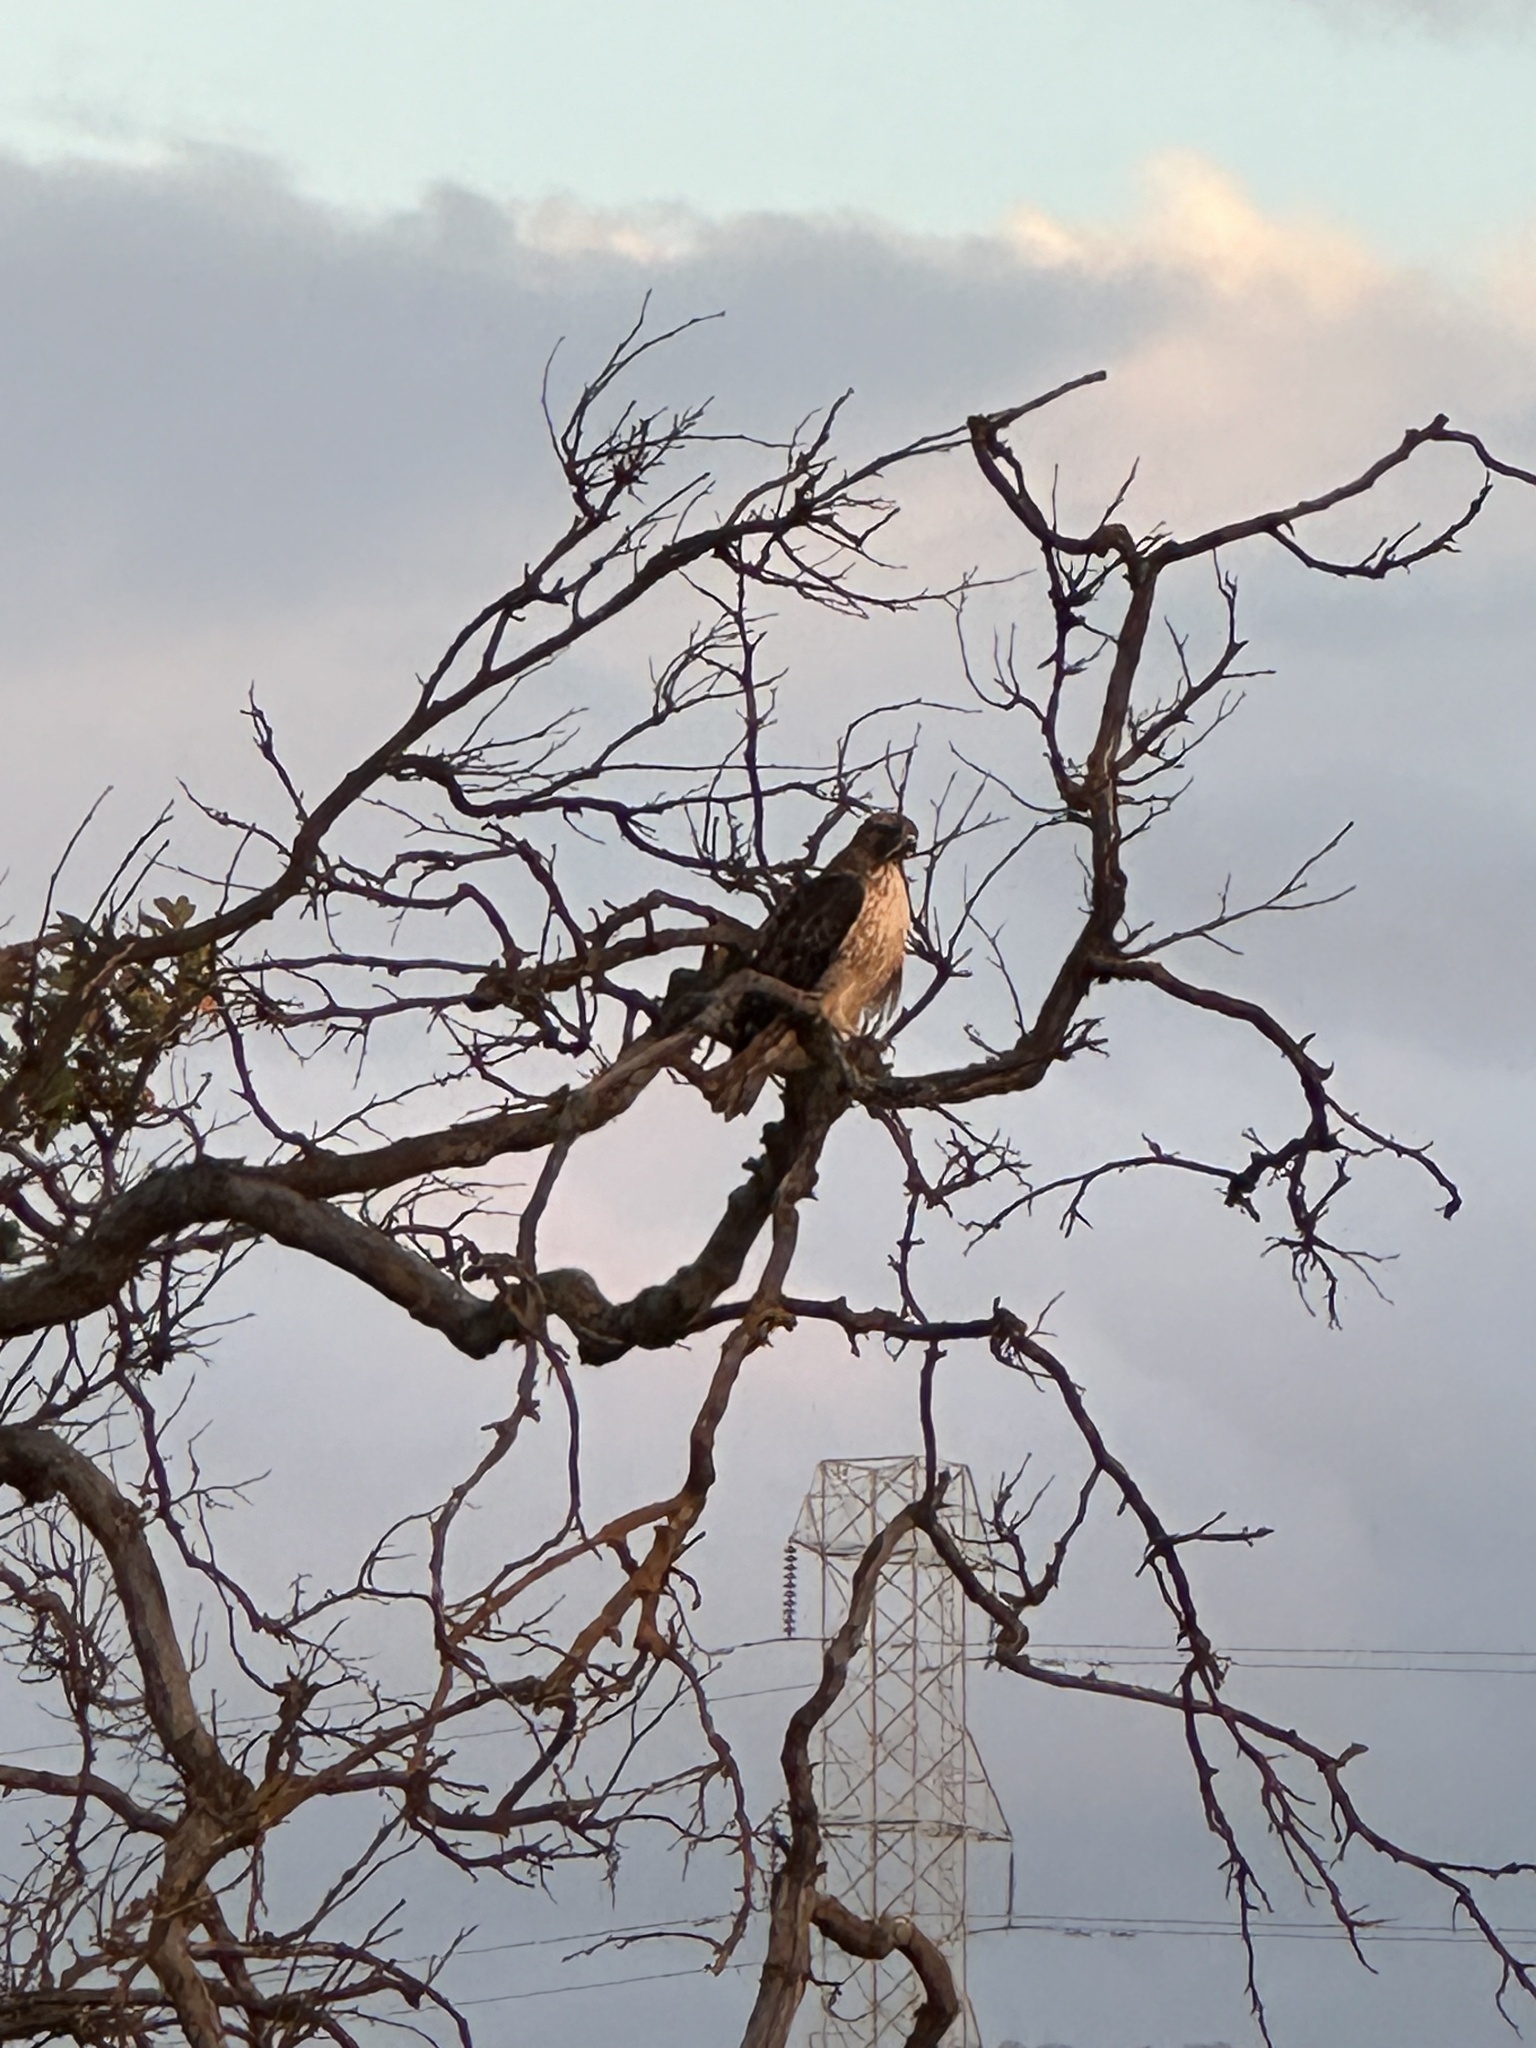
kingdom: Animalia
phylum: Chordata
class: Aves
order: Accipitriformes
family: Accipitridae
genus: Buteo
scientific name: Buteo jamaicensis
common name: Red-tailed hawk
